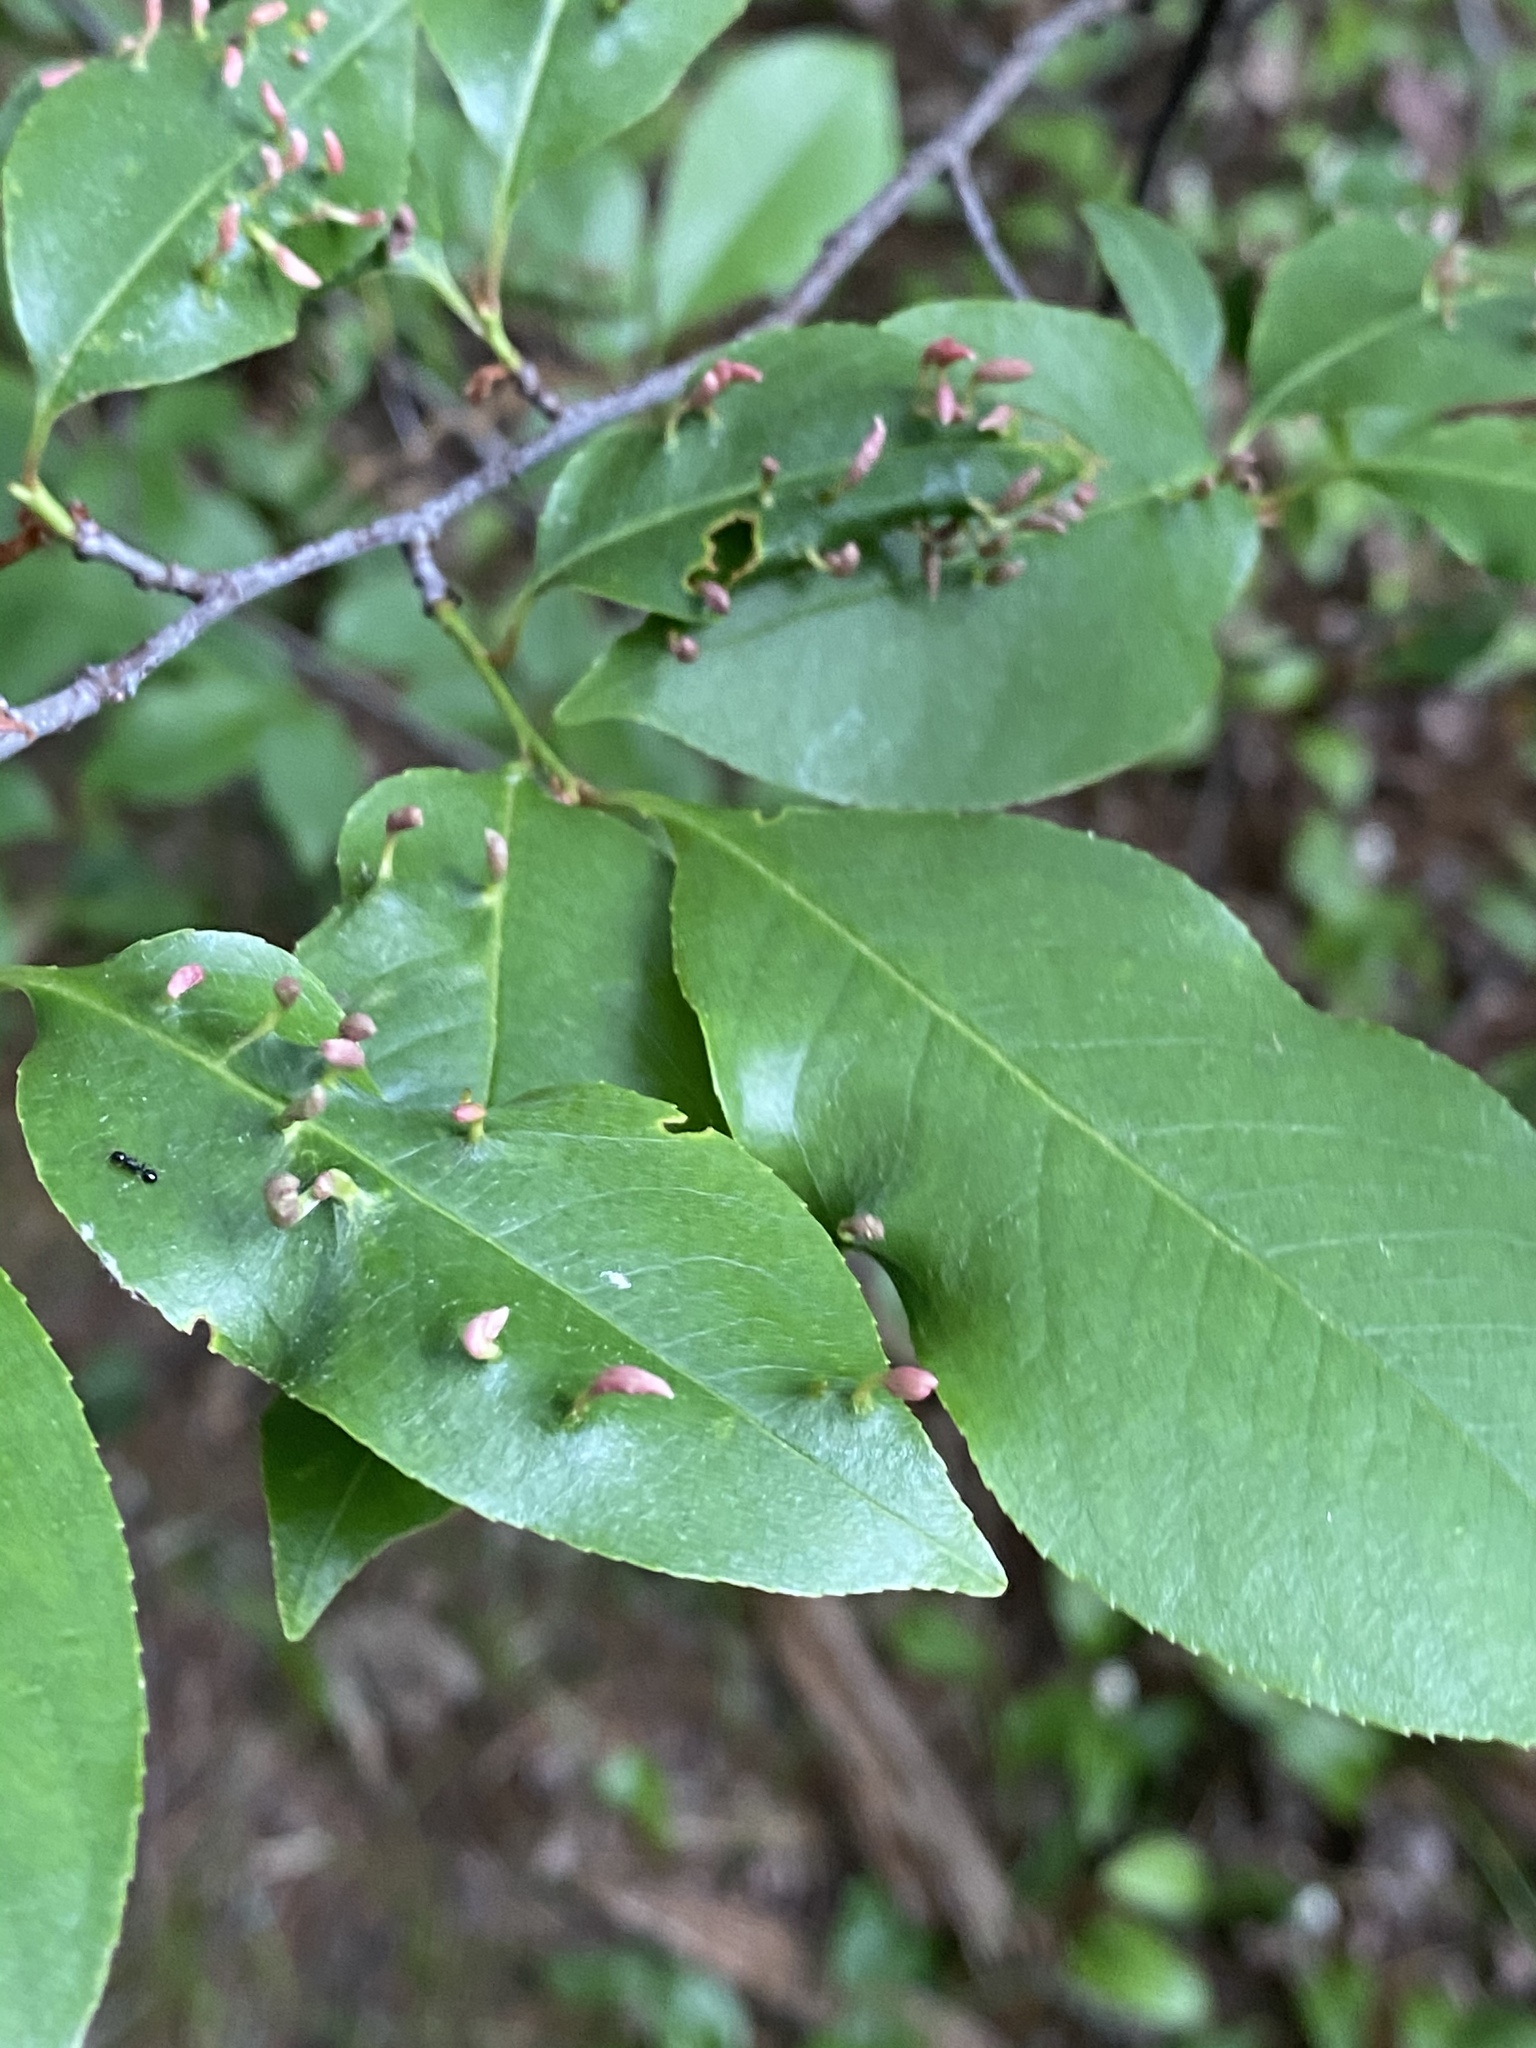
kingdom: Animalia
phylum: Arthropoda
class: Arachnida
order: Trombidiformes
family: Eriophyidae
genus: Eriophyes
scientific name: Eriophyes
